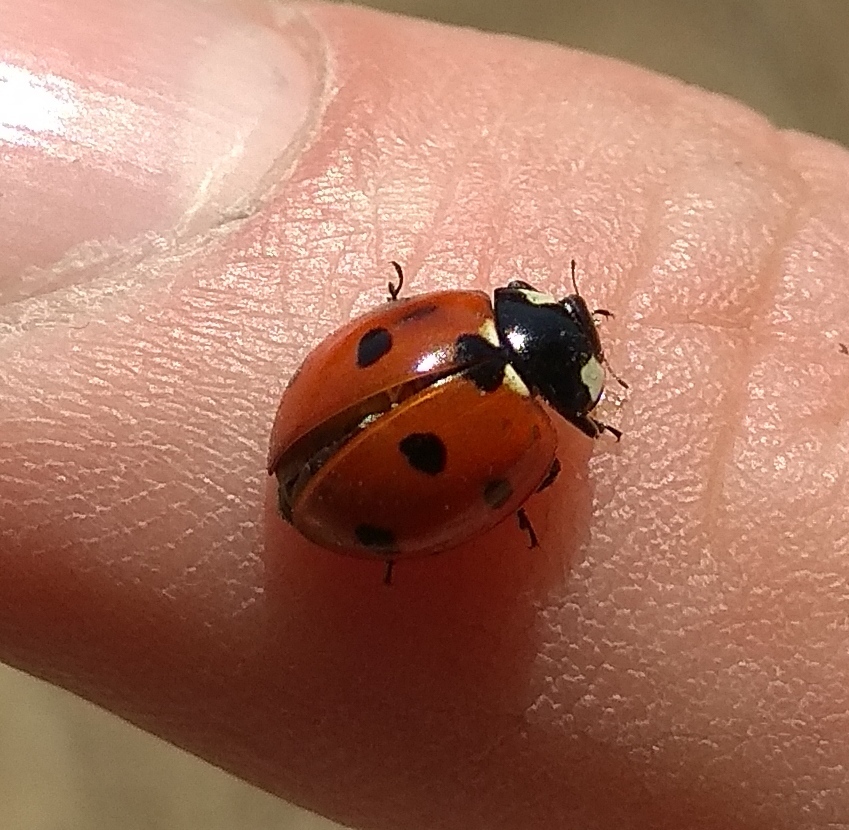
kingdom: Animalia
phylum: Arthropoda
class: Insecta
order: Coleoptera
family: Coccinellidae
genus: Coccinella
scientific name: Coccinella septempunctata
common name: Sevenspotted lady beetle
